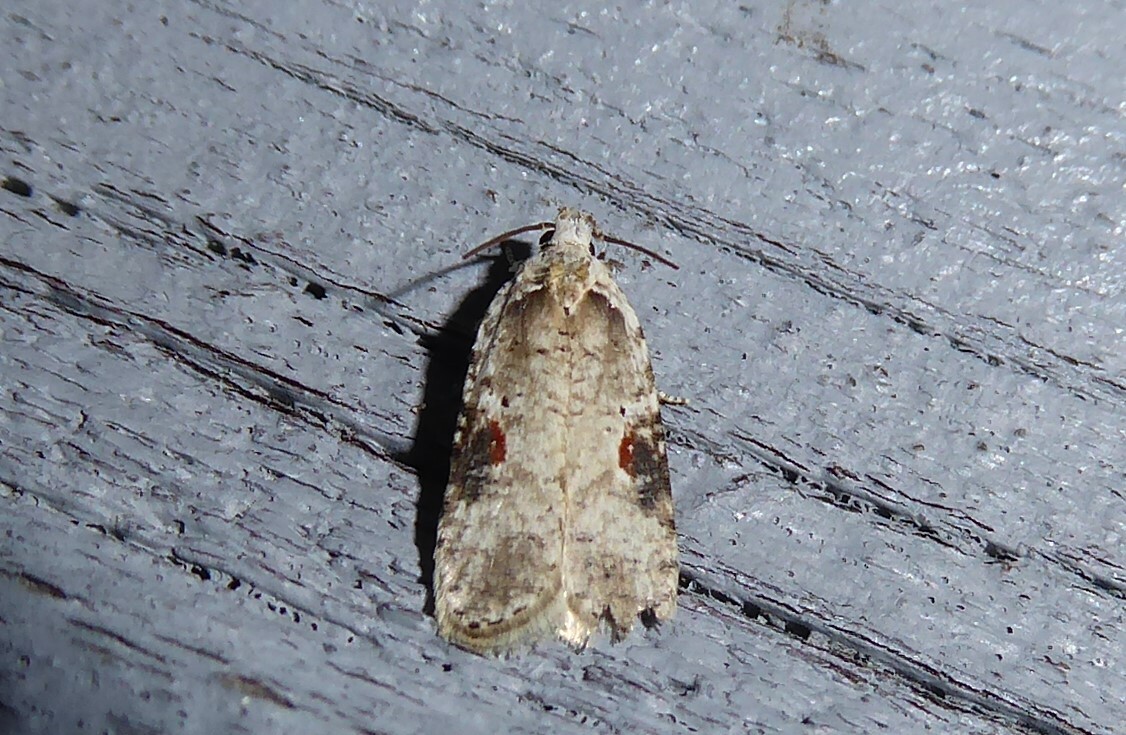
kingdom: Animalia
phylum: Arthropoda
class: Insecta
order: Lepidoptera
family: Depressariidae
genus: Agonopterix
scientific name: Agonopterix alstroemeriana
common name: Moth
